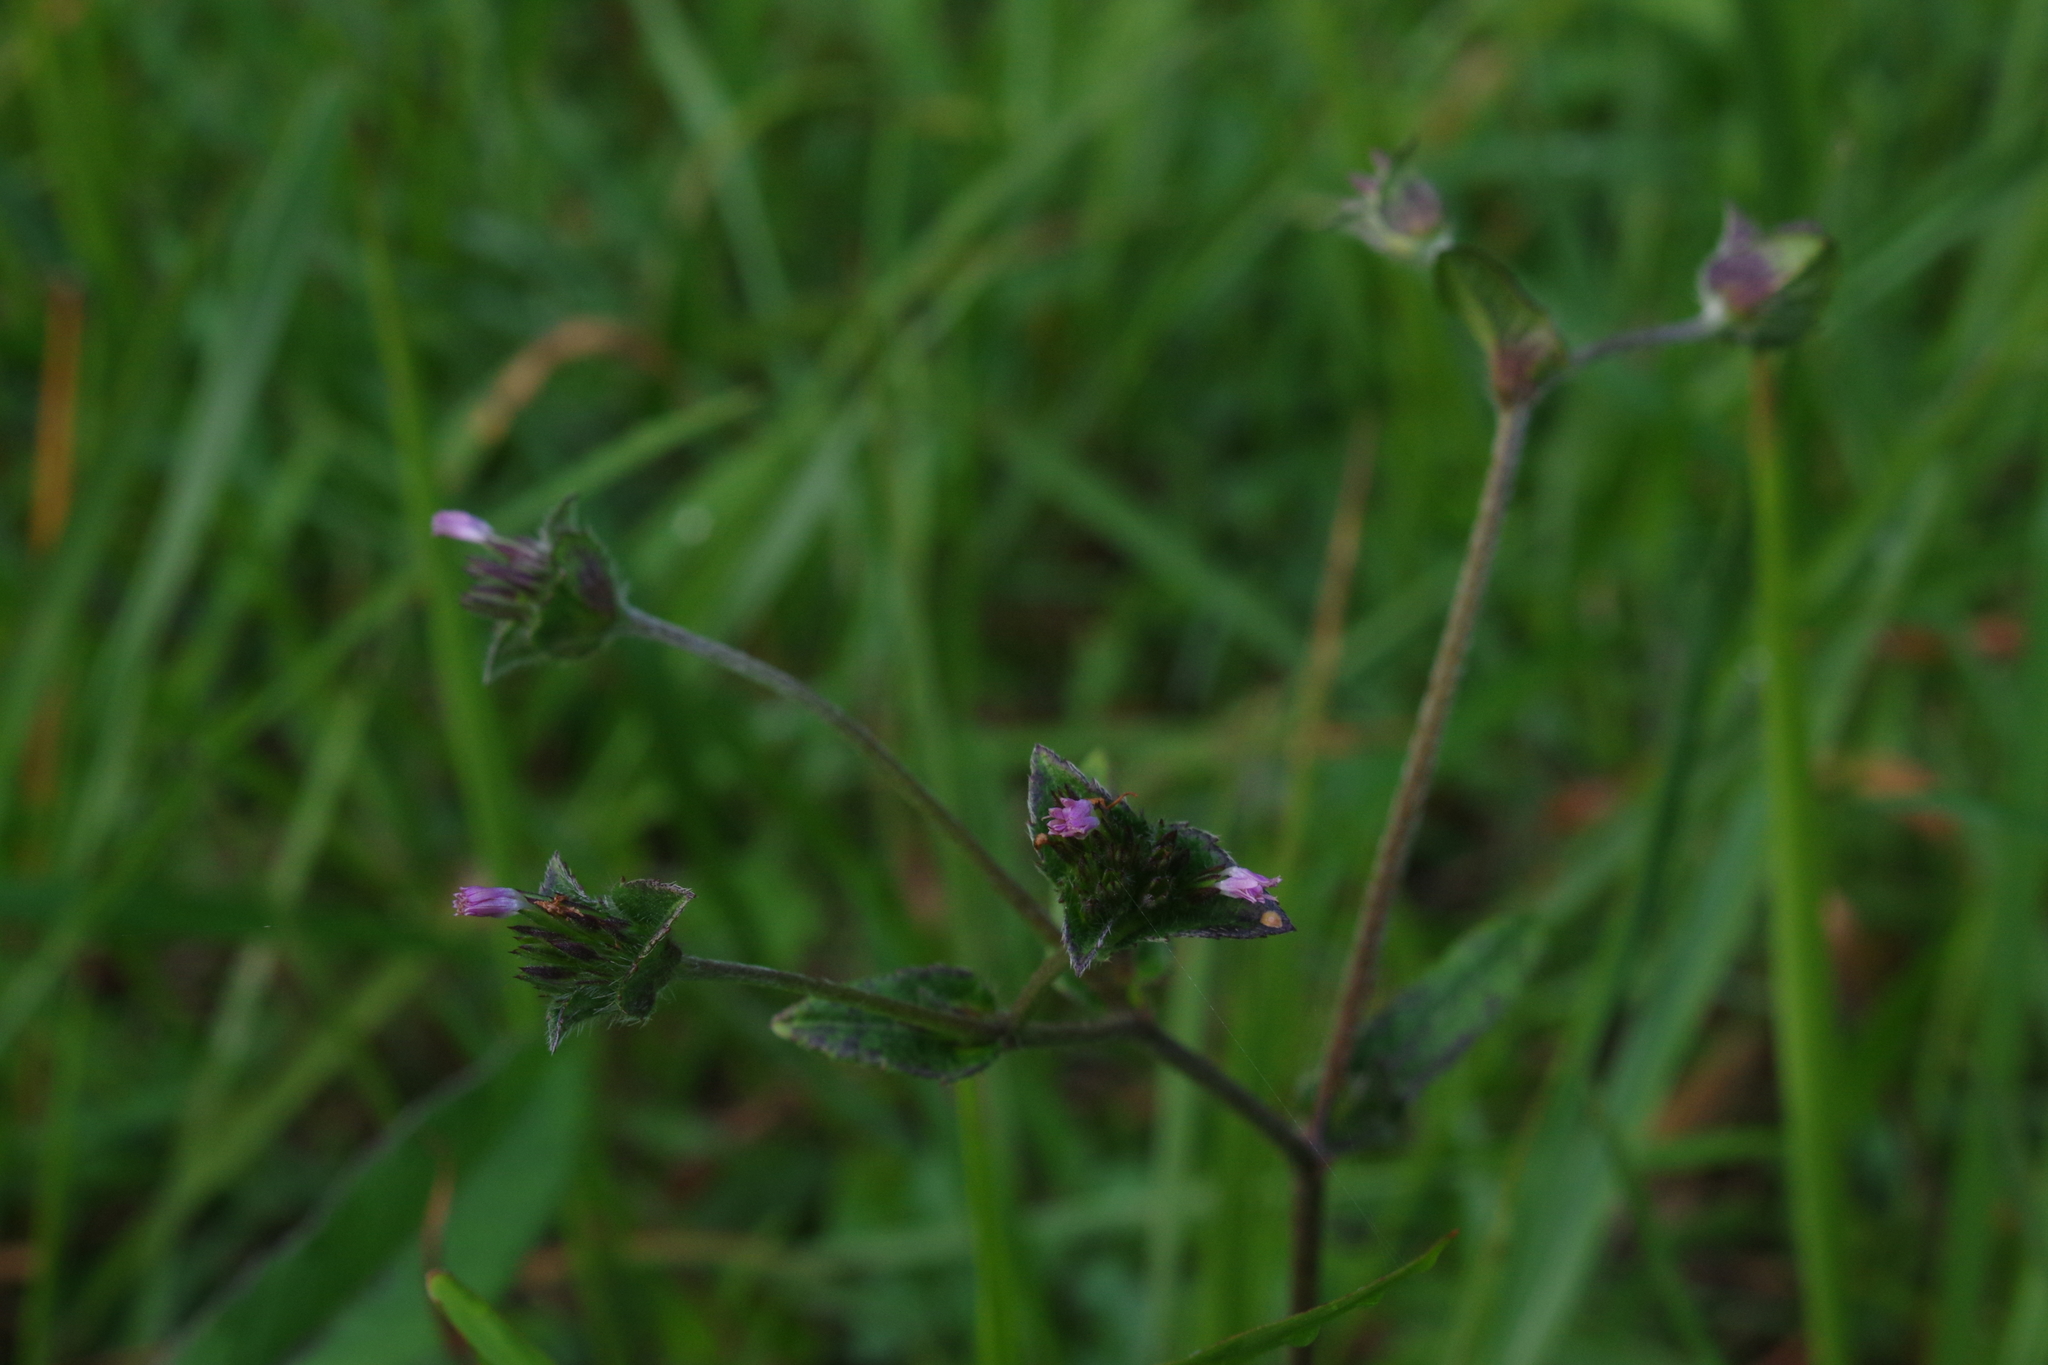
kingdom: Plantae
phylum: Tracheophyta
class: Magnoliopsida
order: Asterales
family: Asteraceae
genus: Elephantopus
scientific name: Elephantopus scaber
